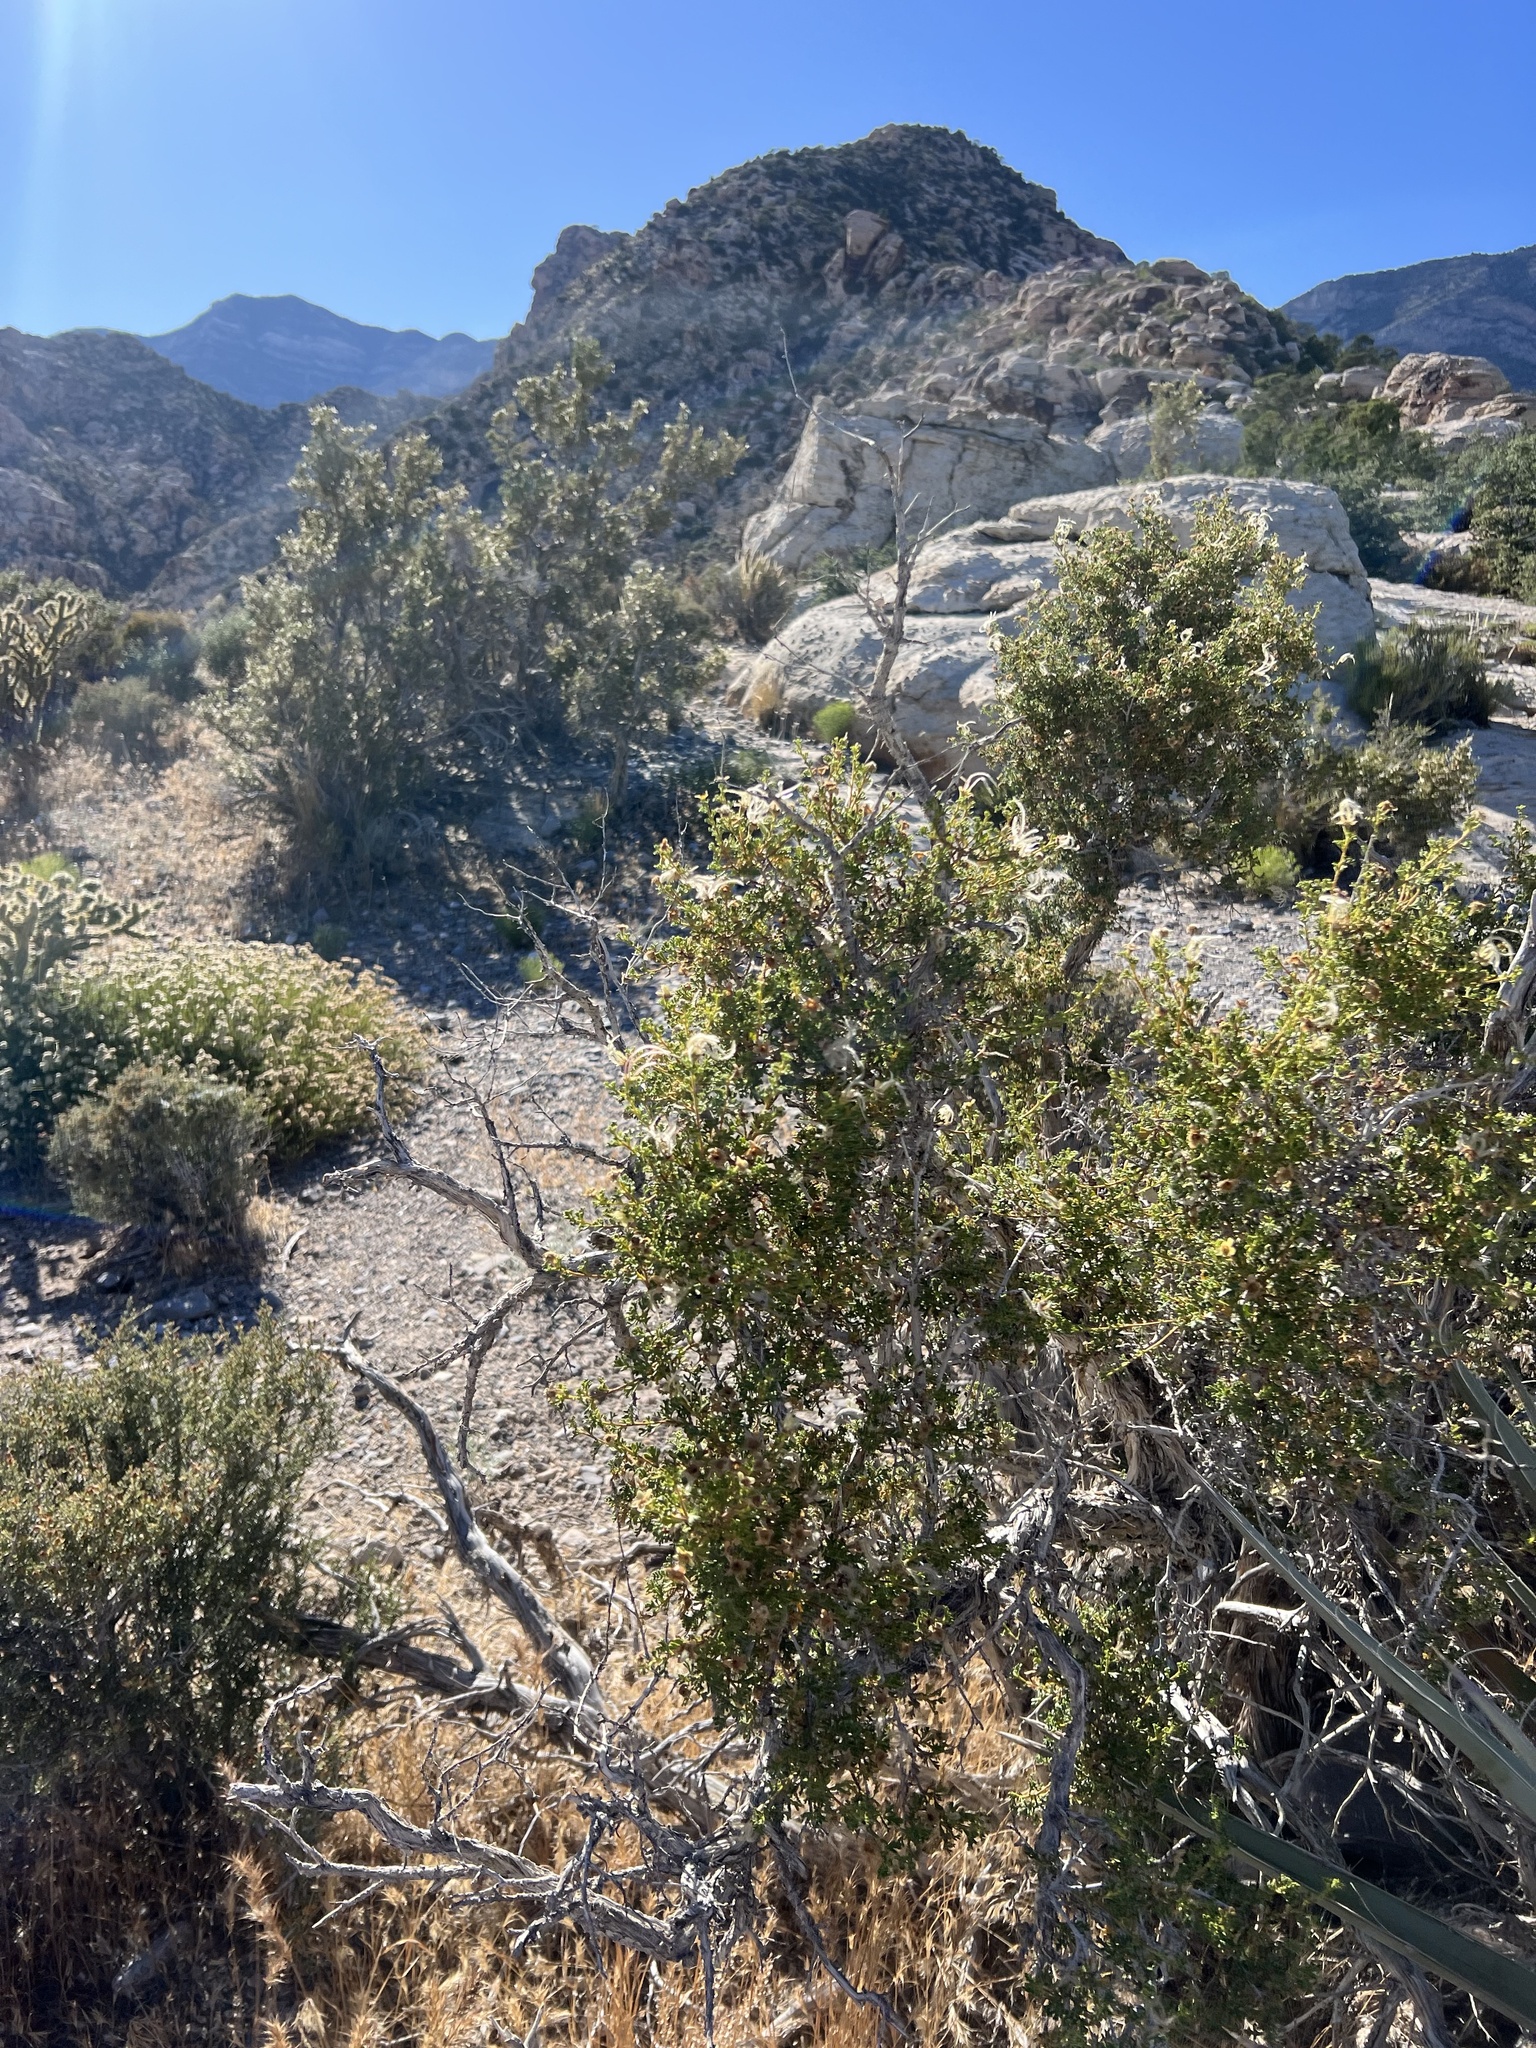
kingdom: Plantae
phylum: Tracheophyta
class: Magnoliopsida
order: Rosales
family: Rosaceae
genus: Purshia
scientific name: Purshia stansburiana
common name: Stansbury's cliffrose
